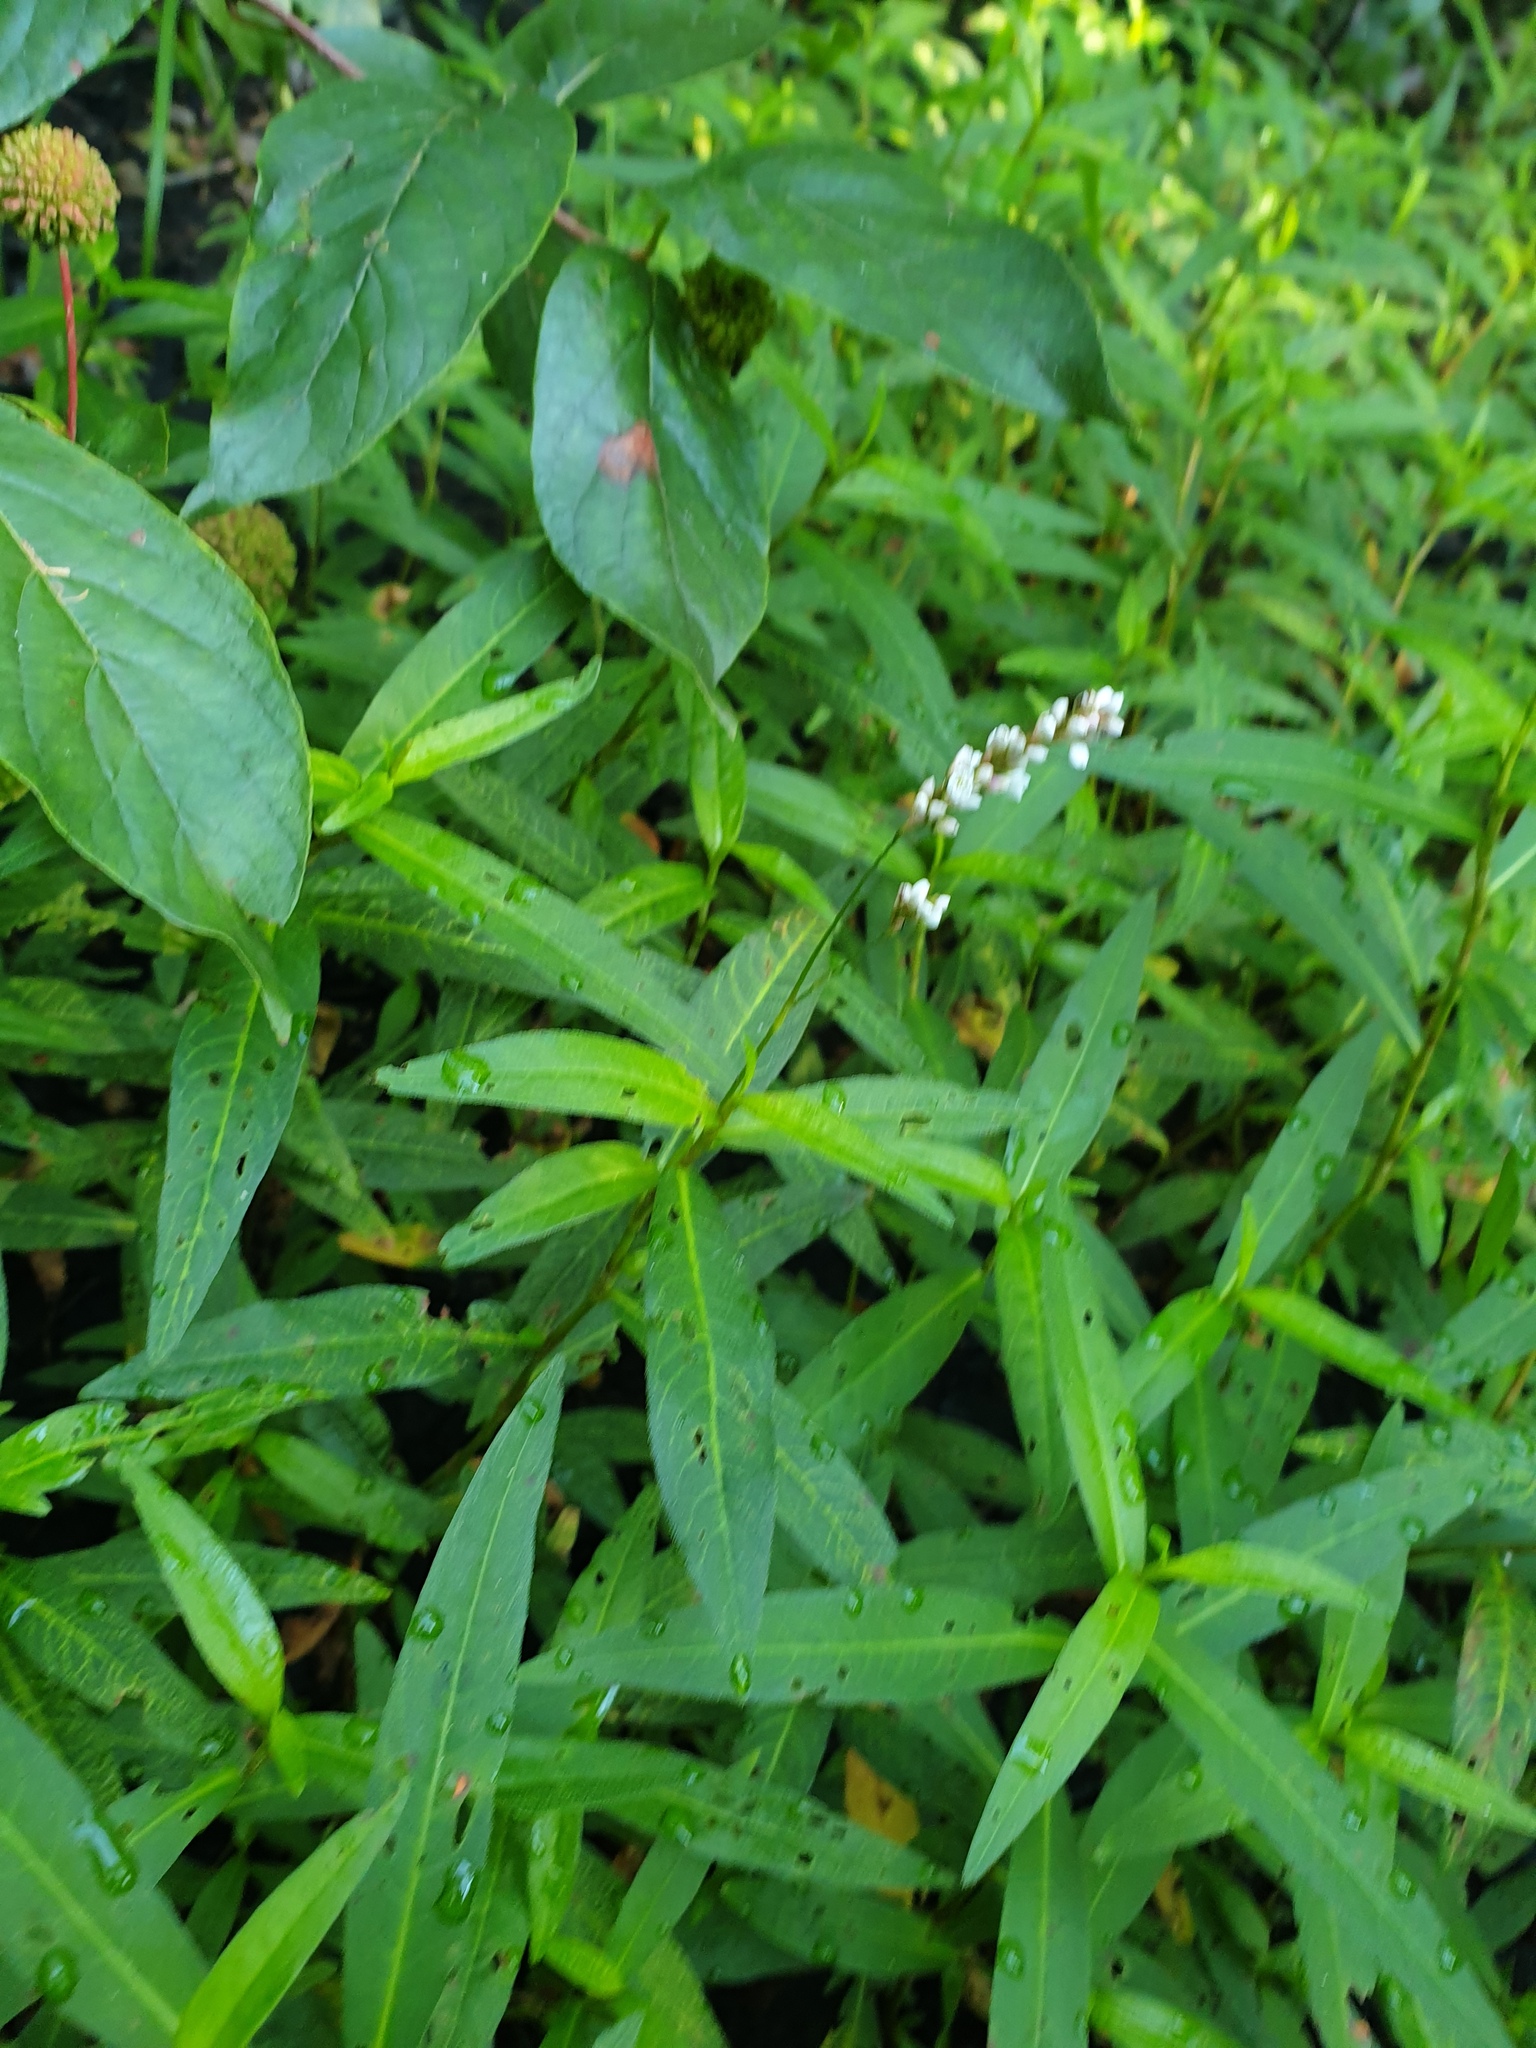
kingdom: Plantae
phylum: Tracheophyta
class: Magnoliopsida
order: Caryophyllales
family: Polygonaceae
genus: Persicaria
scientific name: Persicaria hydropiperoides
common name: Swamp smartweed
